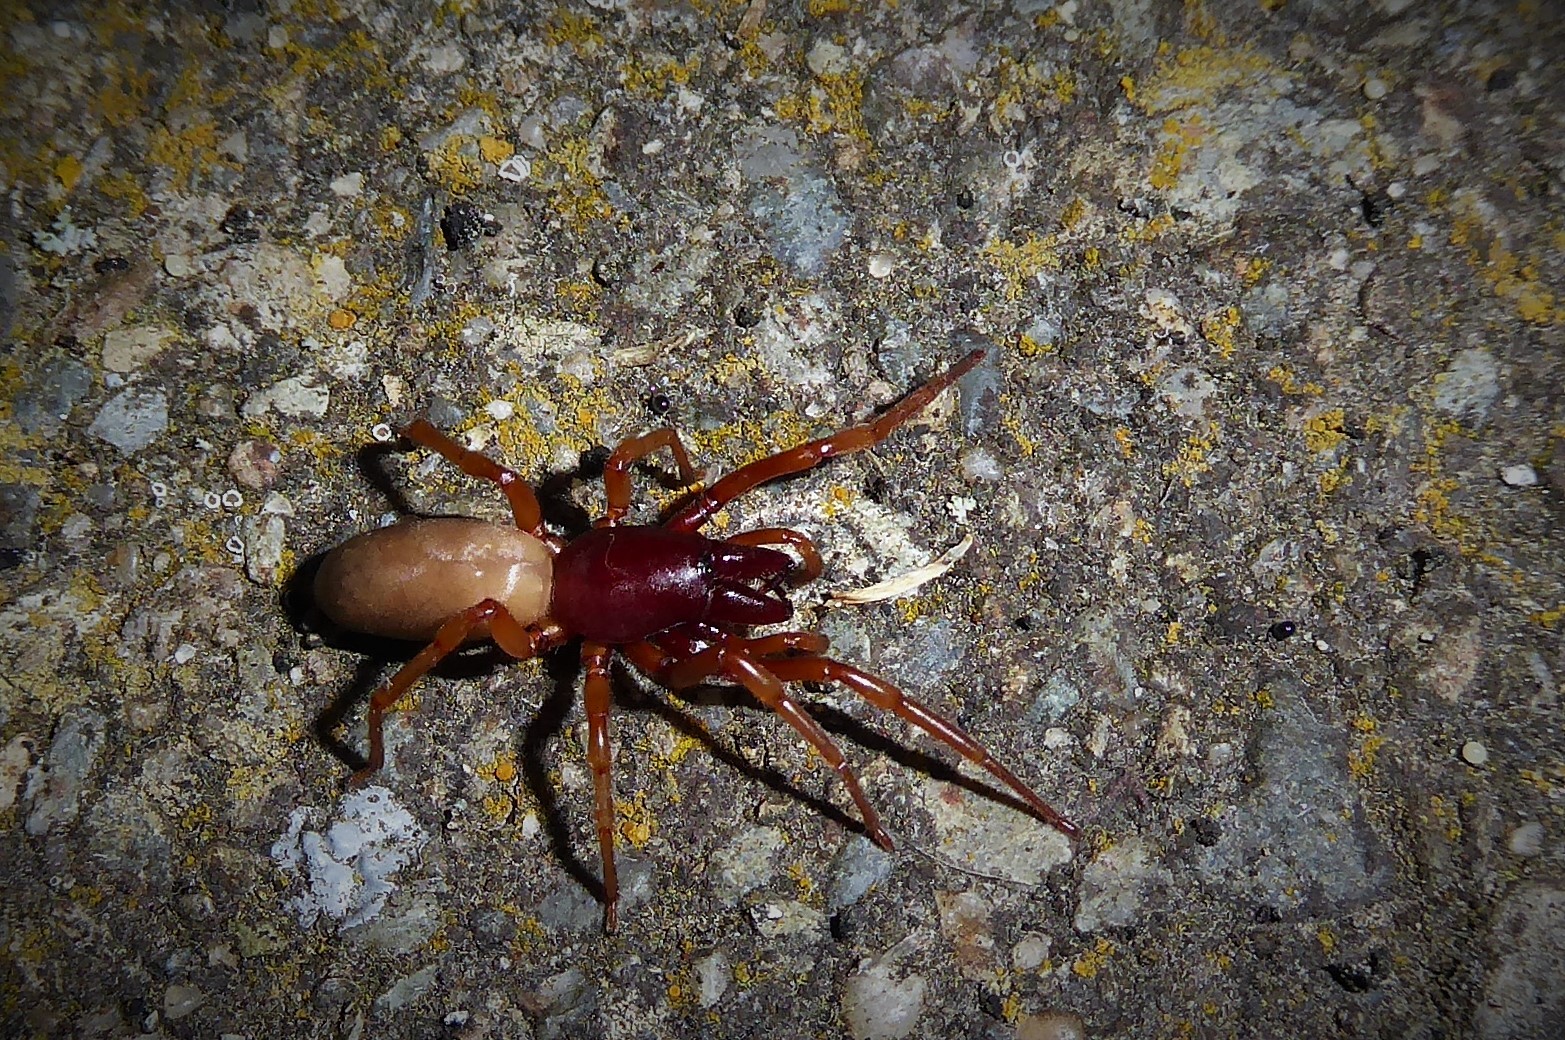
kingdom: Animalia
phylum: Arthropoda
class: Arachnida
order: Araneae
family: Dysderidae
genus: Dysdera
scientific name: Dysdera crocata
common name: Woodlouse spider
